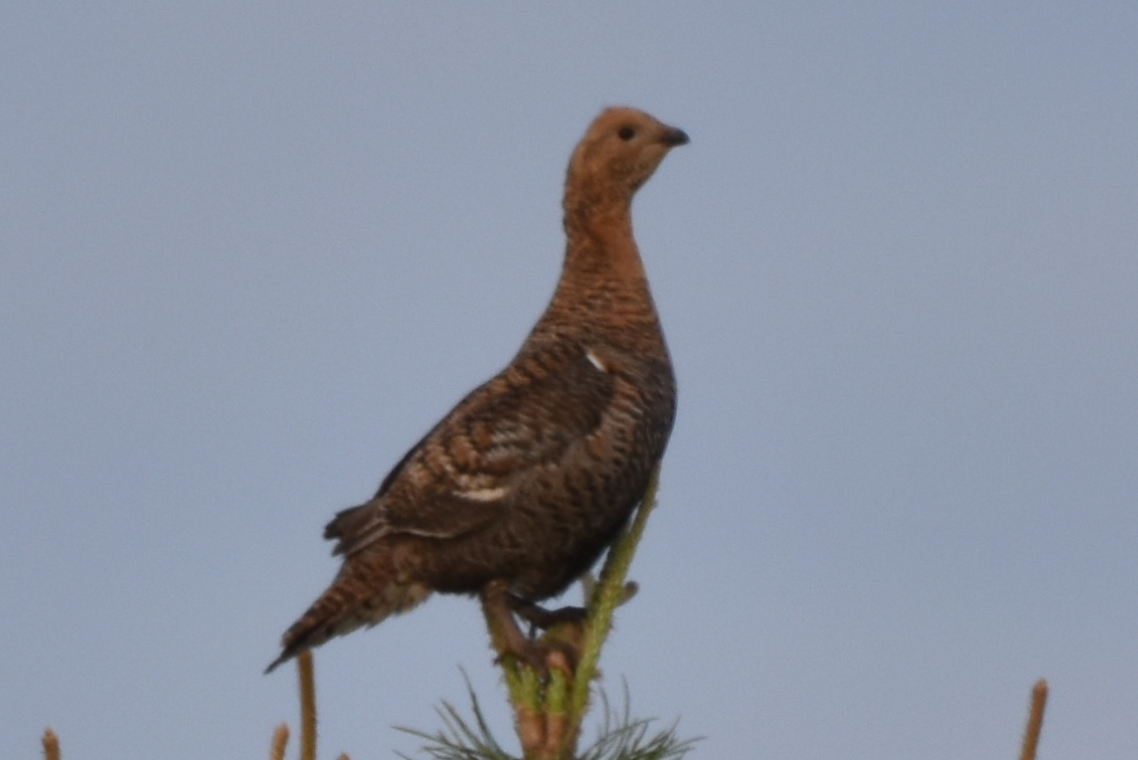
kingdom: Animalia
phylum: Chordata
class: Aves
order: Galliformes
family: Phasianidae
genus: Lyrurus
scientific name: Lyrurus tetrix
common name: Black grouse
